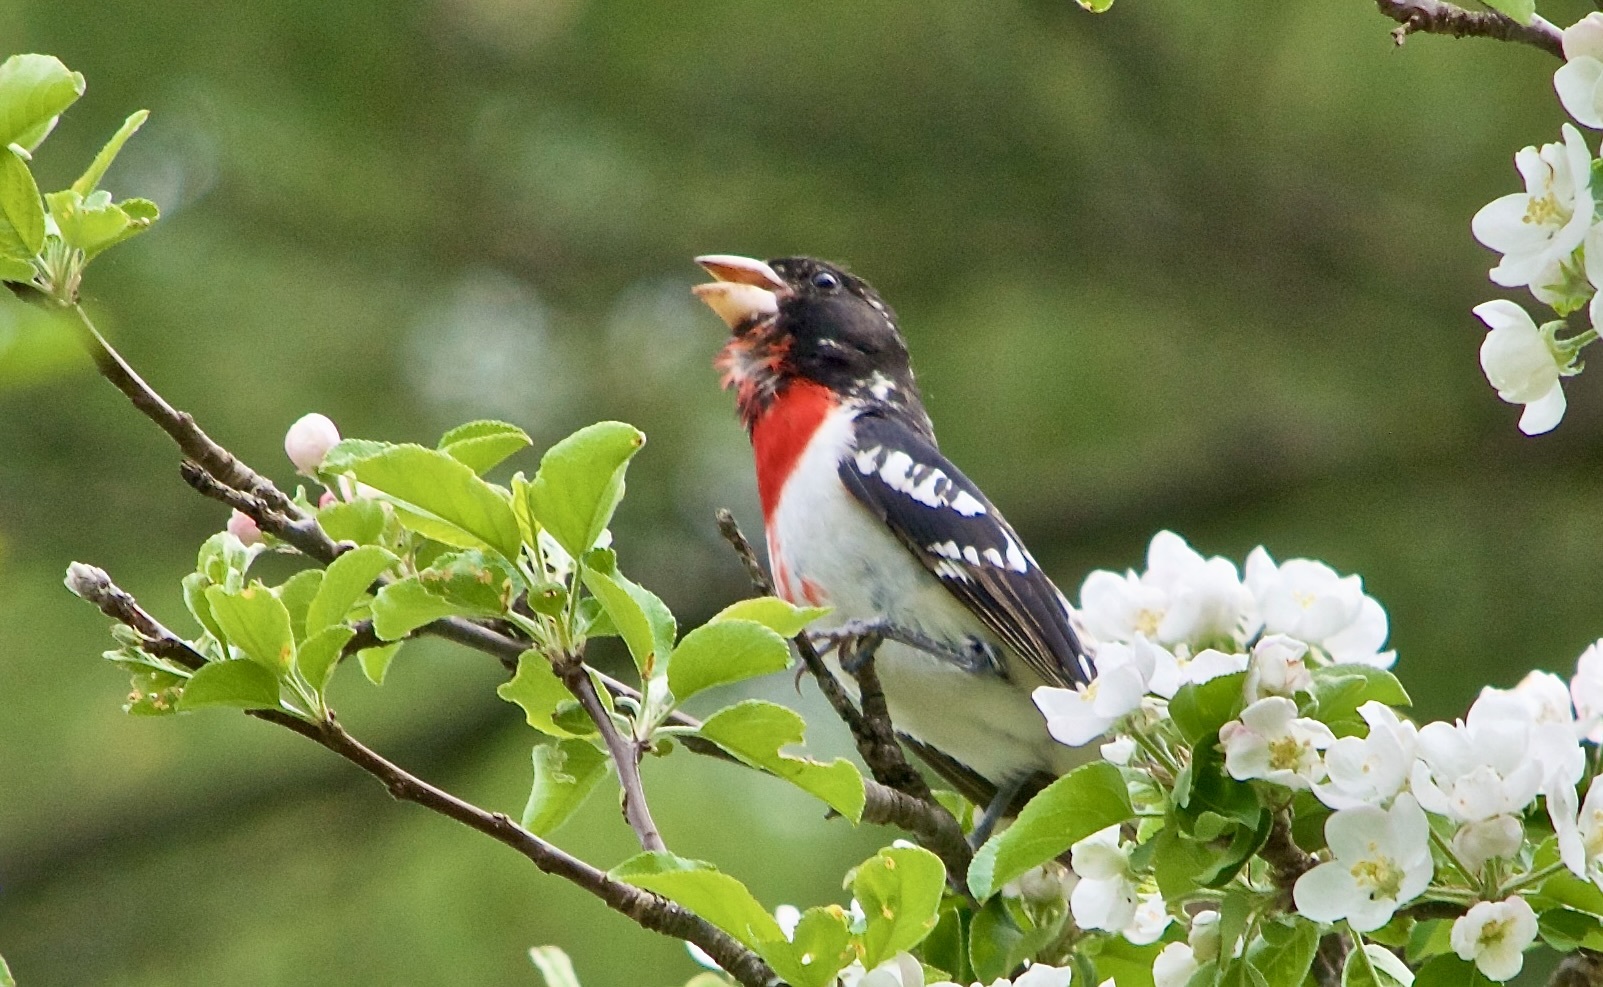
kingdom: Animalia
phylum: Chordata
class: Aves
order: Passeriformes
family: Cardinalidae
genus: Pheucticus
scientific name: Pheucticus ludovicianus
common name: Rose-breasted grosbeak
